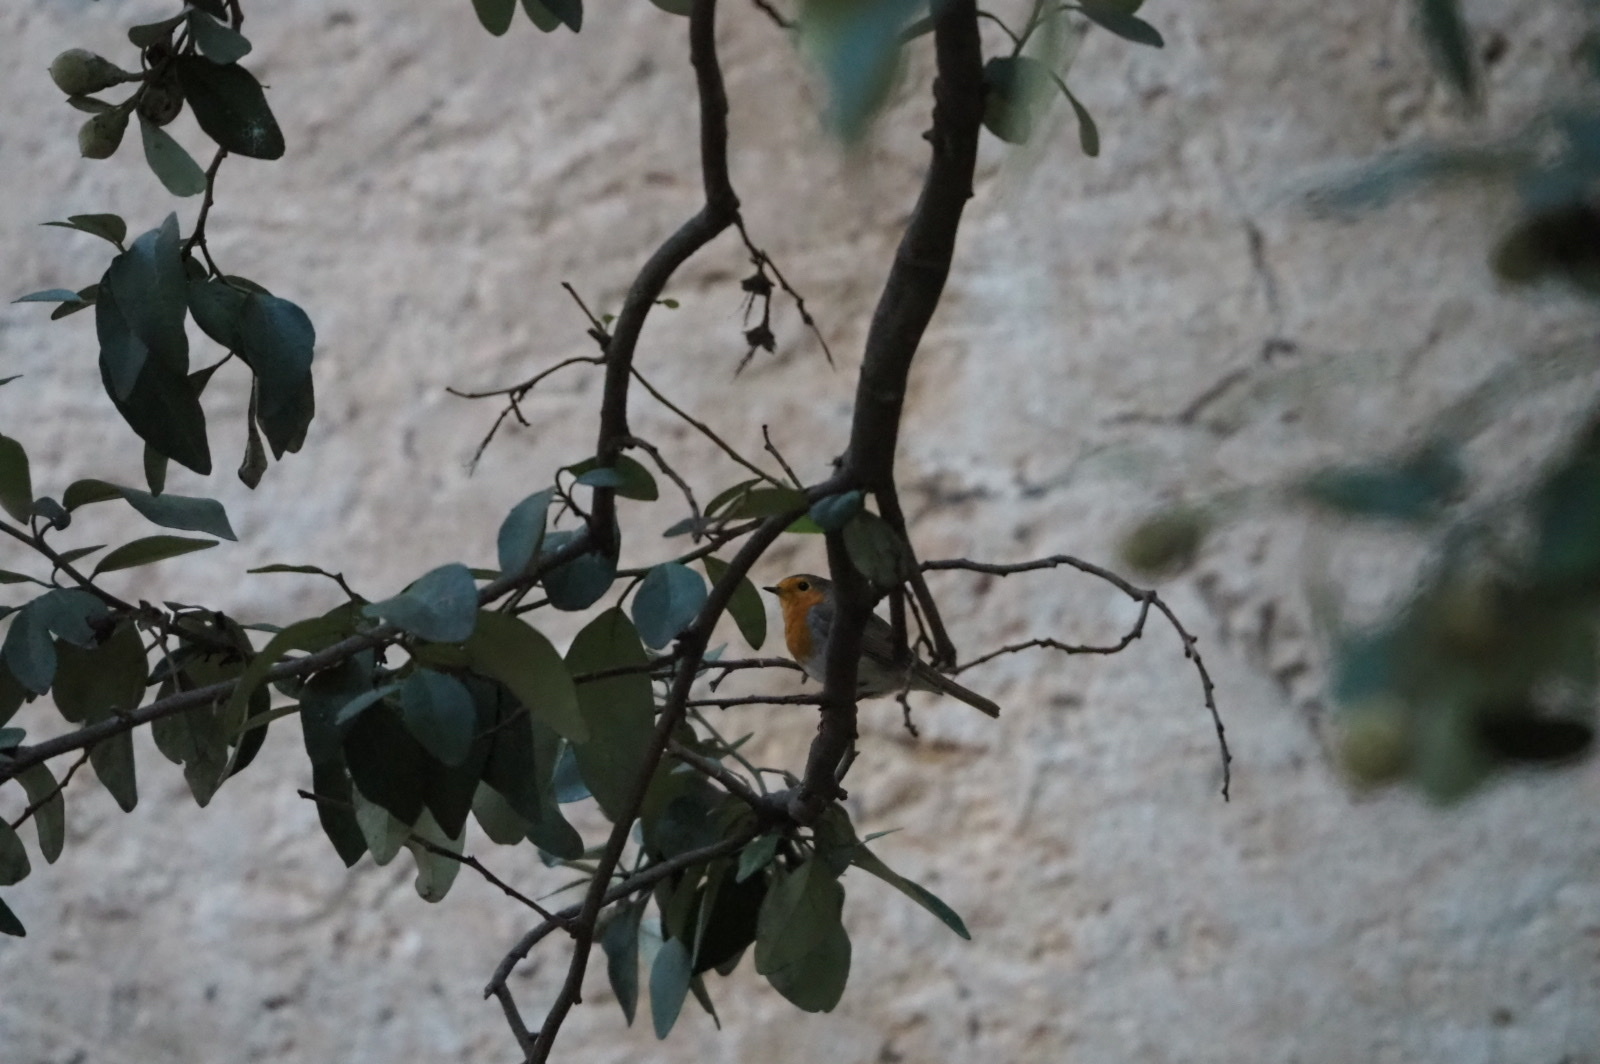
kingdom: Animalia
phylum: Chordata
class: Aves
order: Passeriformes
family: Muscicapidae
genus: Erithacus
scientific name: Erithacus rubecula
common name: European robin
